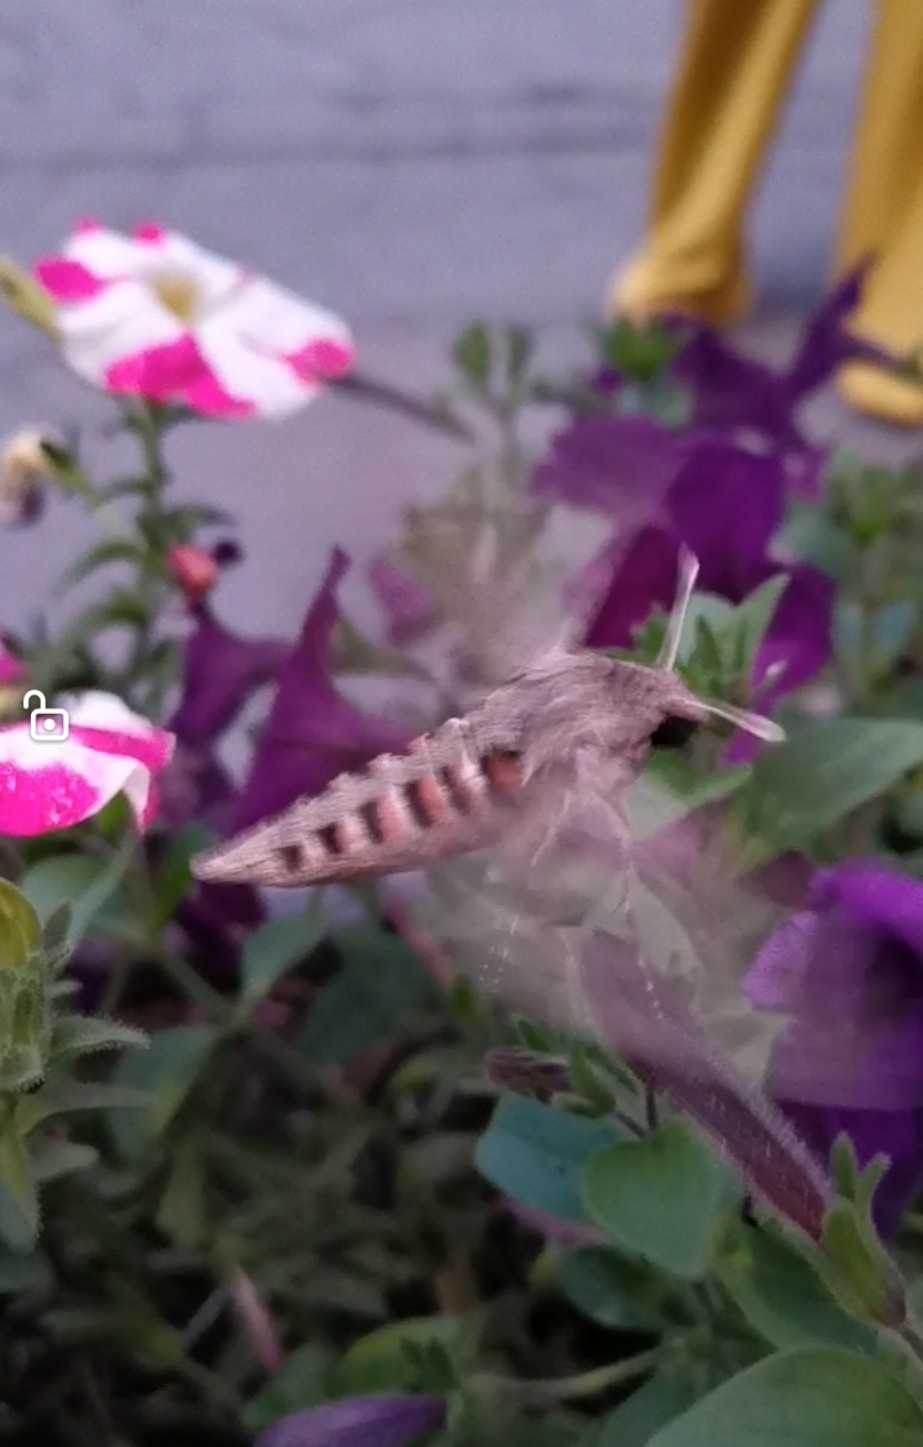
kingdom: Animalia
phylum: Arthropoda
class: Insecta
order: Lepidoptera
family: Sphingidae
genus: Agrius
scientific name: Agrius convolvuli
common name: Convolvulus hawkmoth
